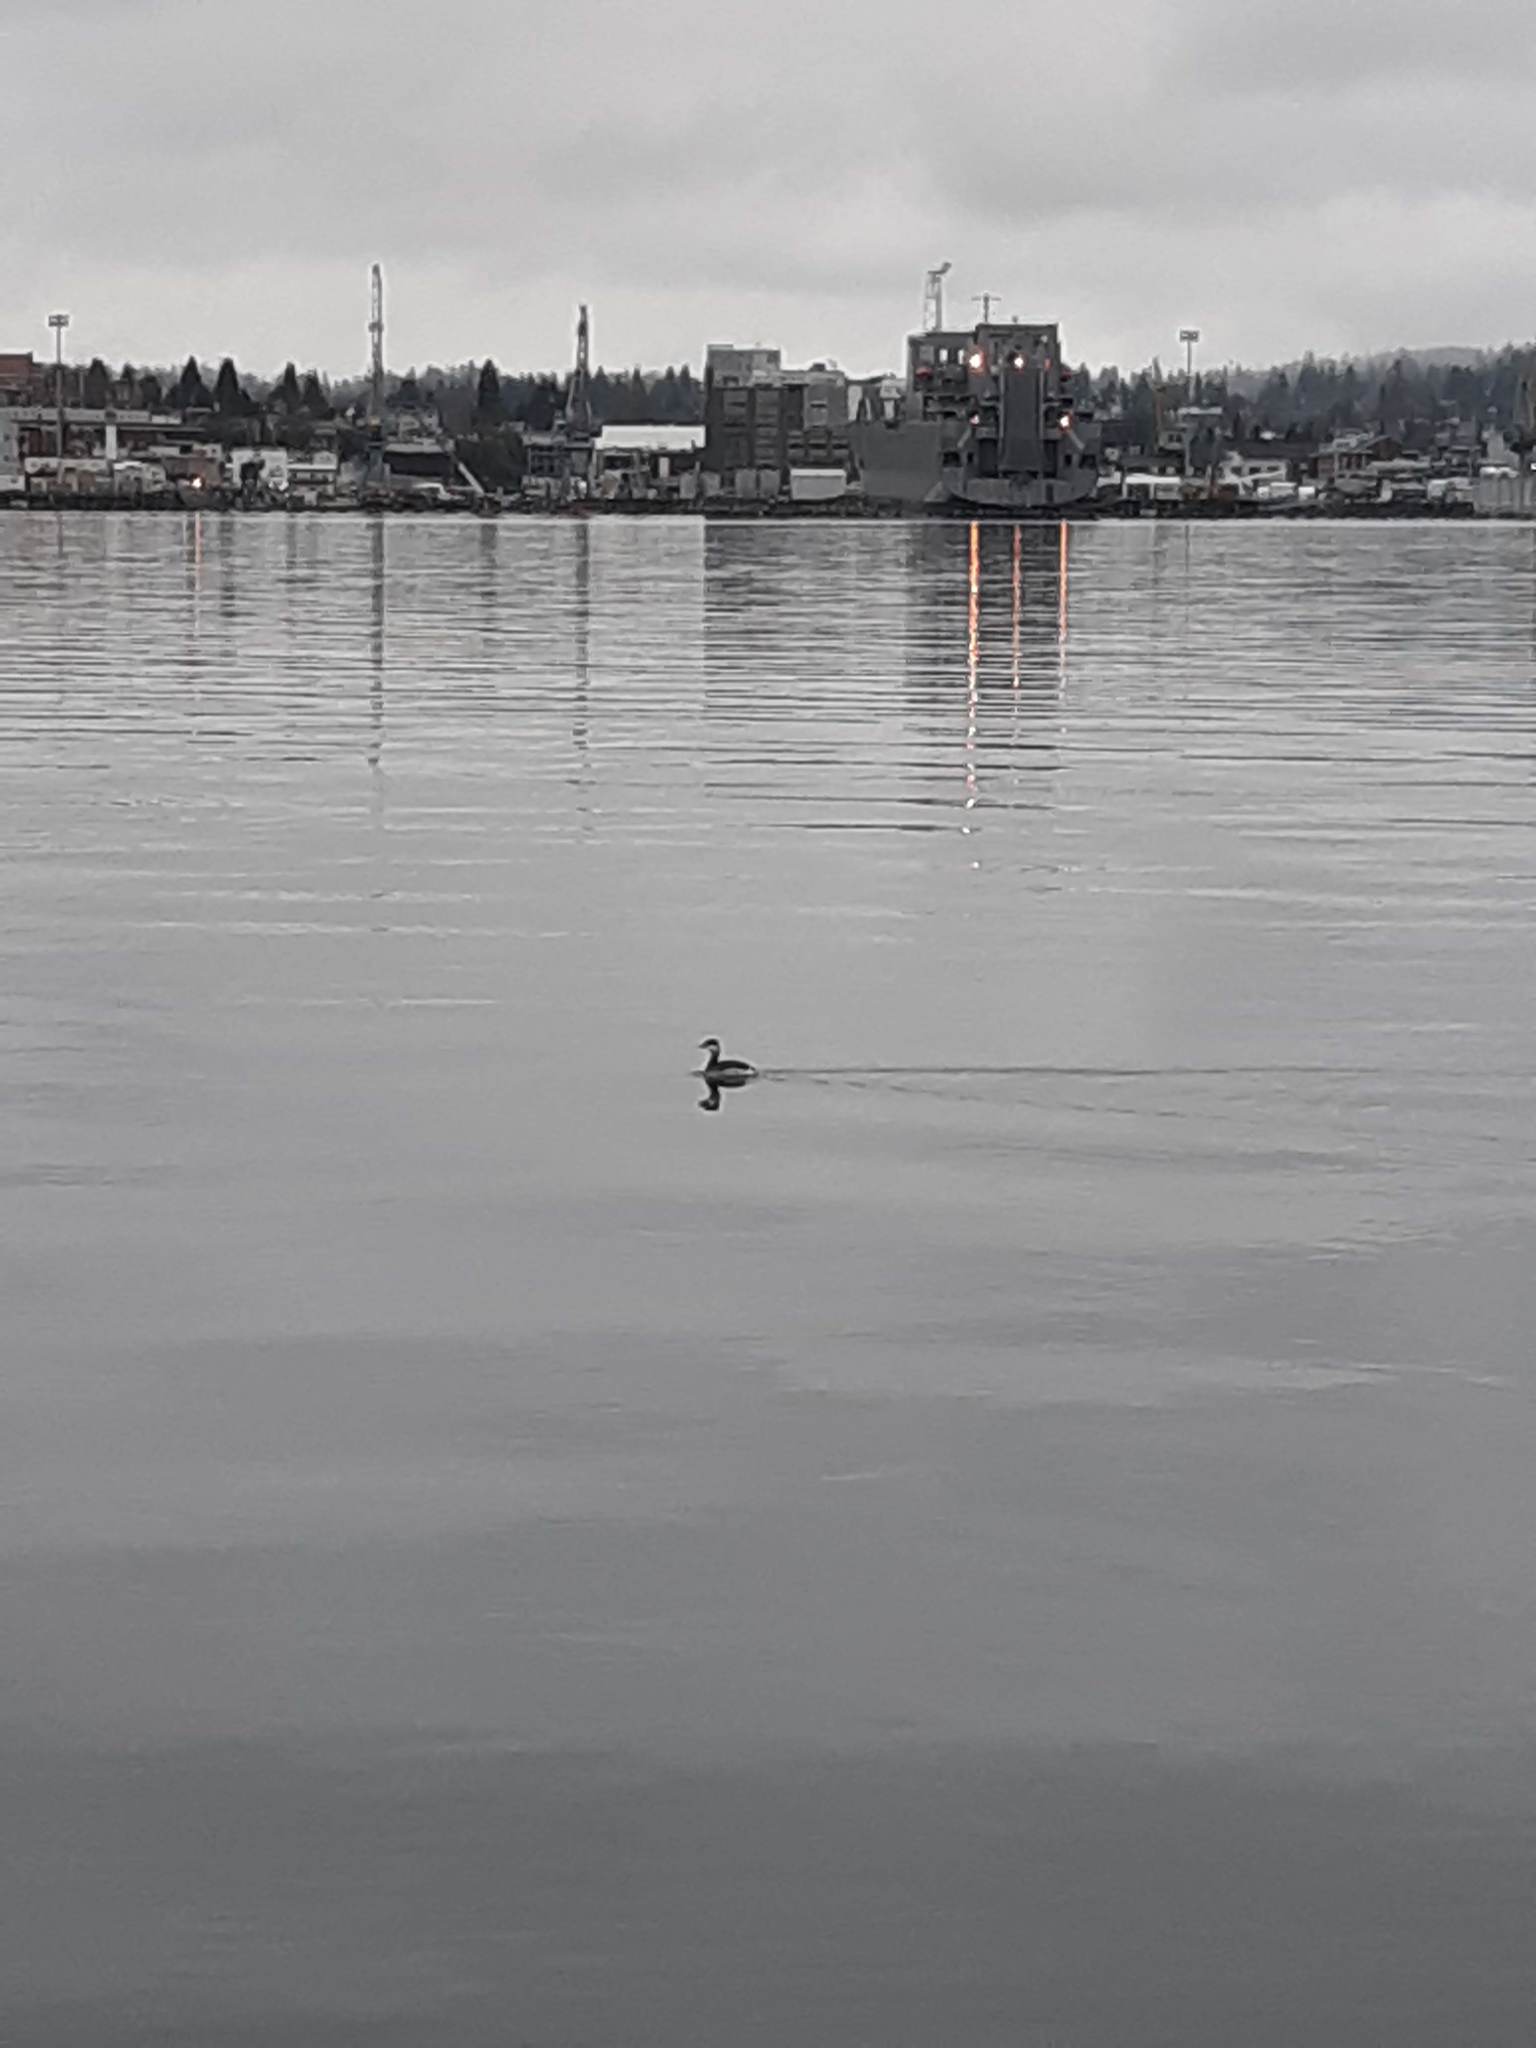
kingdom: Animalia
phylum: Chordata
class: Aves
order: Podicipediformes
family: Podicipedidae
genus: Podiceps
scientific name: Podiceps auritus
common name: Horned grebe
